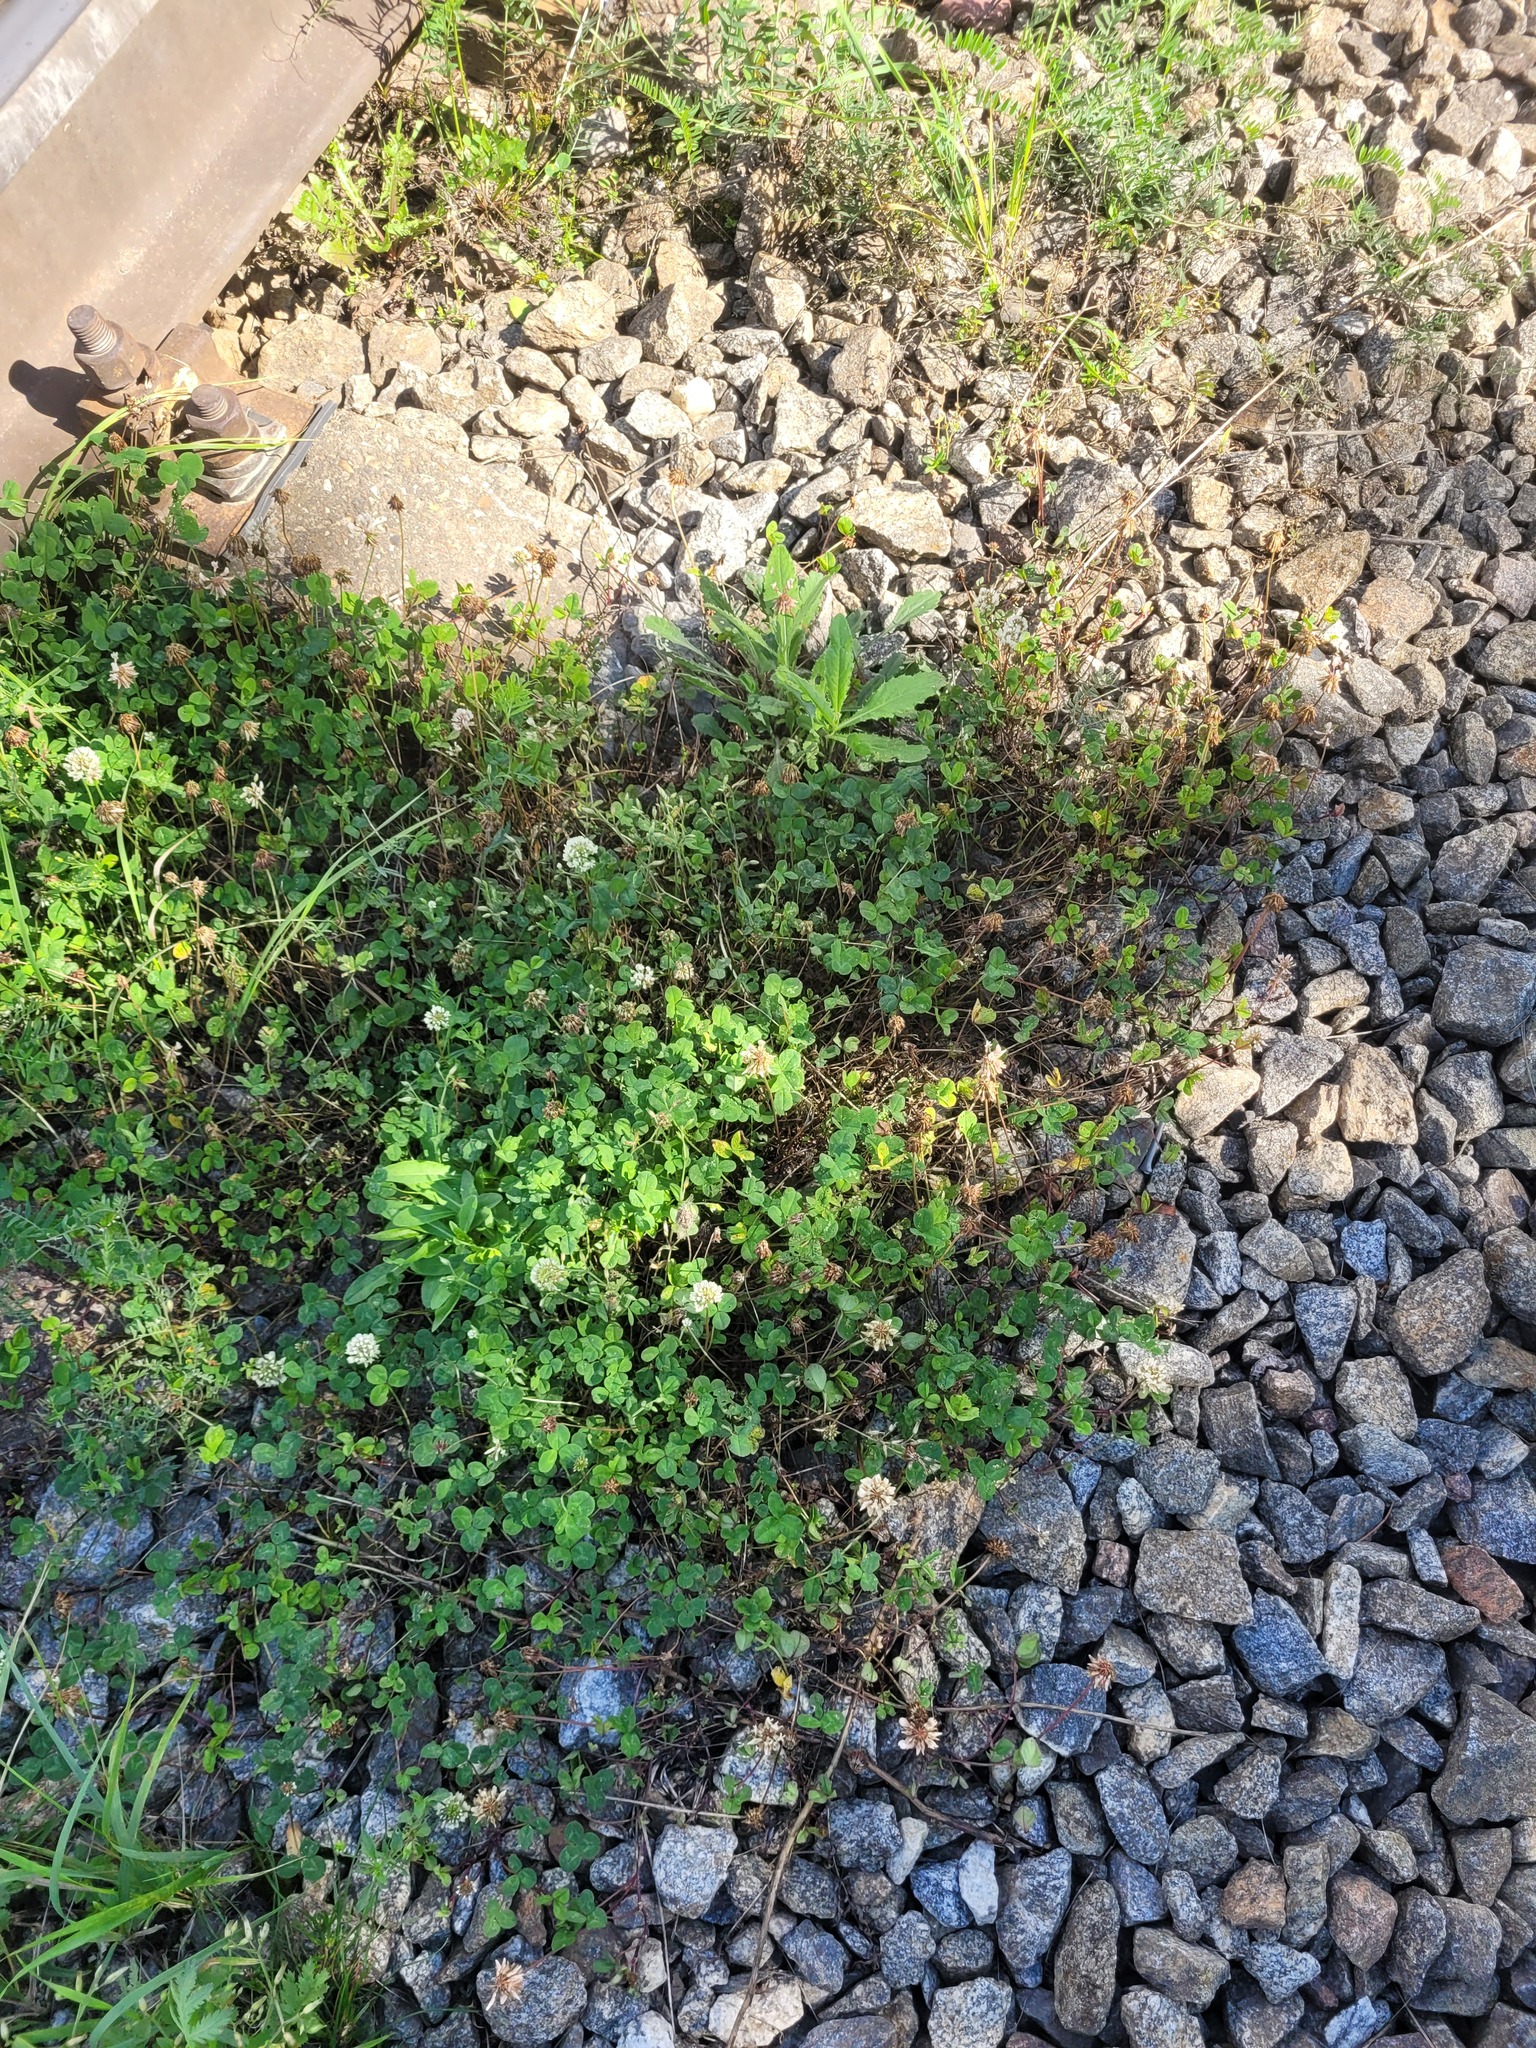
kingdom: Plantae
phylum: Tracheophyta
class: Magnoliopsida
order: Fabales
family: Fabaceae
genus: Trifolium
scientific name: Trifolium repens
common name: White clover
